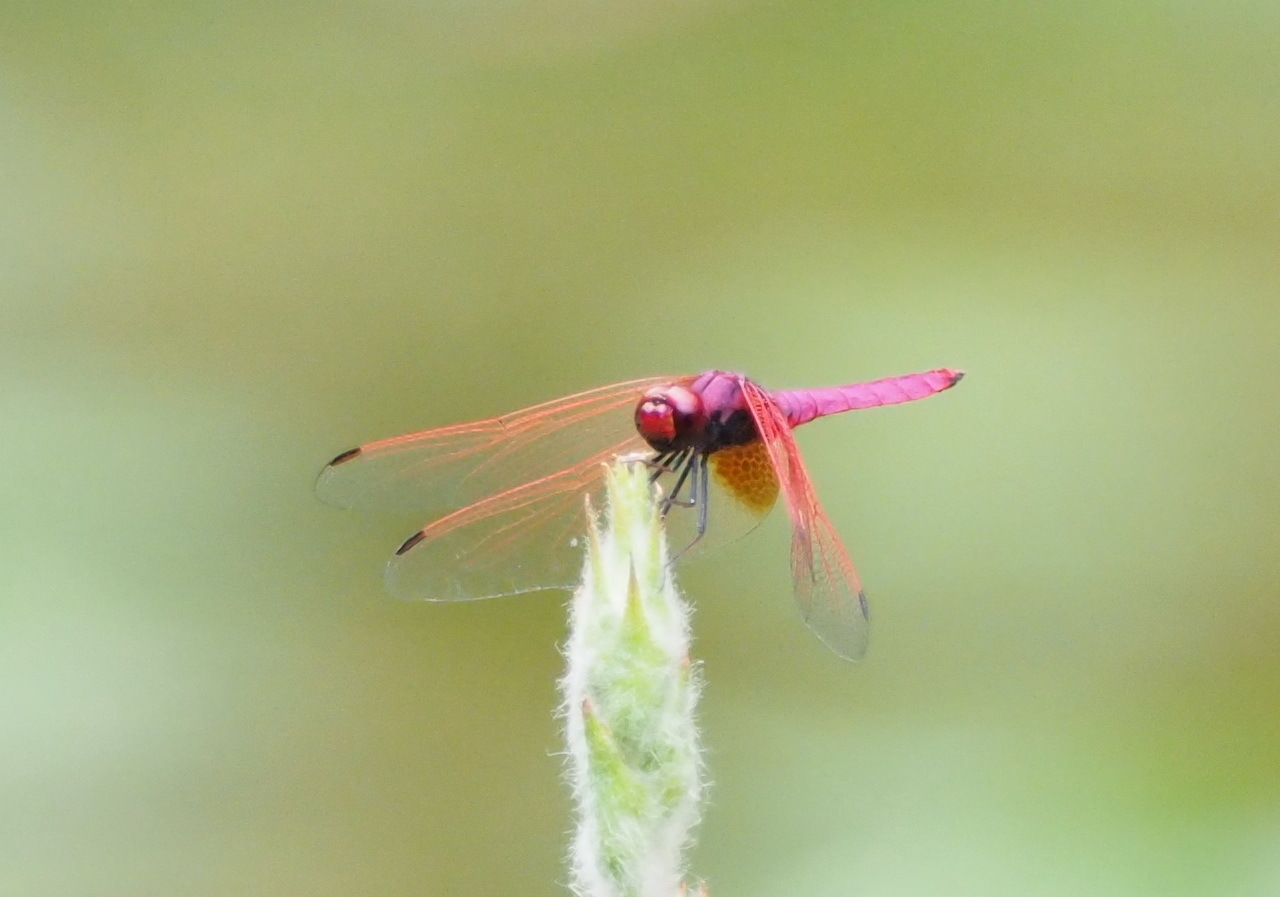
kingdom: Animalia
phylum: Arthropoda
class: Insecta
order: Odonata
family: Libellulidae
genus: Trithemis
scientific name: Trithemis aurora
